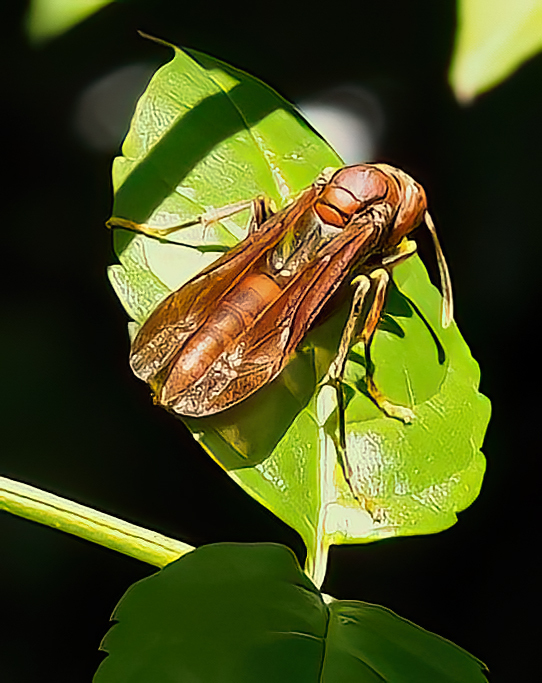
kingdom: Animalia
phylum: Arthropoda
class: Insecta
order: Hymenoptera
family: Pompilidae
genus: Aphanilopterus
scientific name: Aphanilopterus
